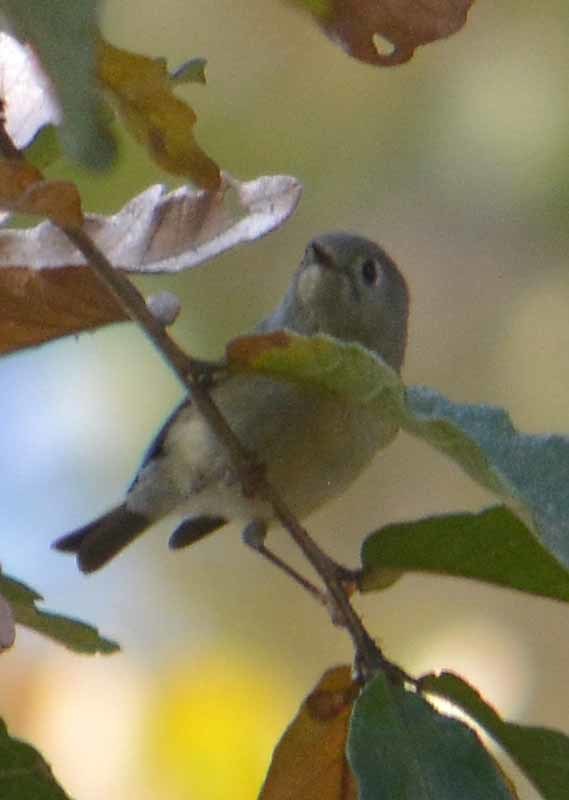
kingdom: Animalia
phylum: Chordata
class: Aves
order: Passeriformes
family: Regulidae
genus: Regulus
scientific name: Regulus calendula
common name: Ruby-crowned kinglet
